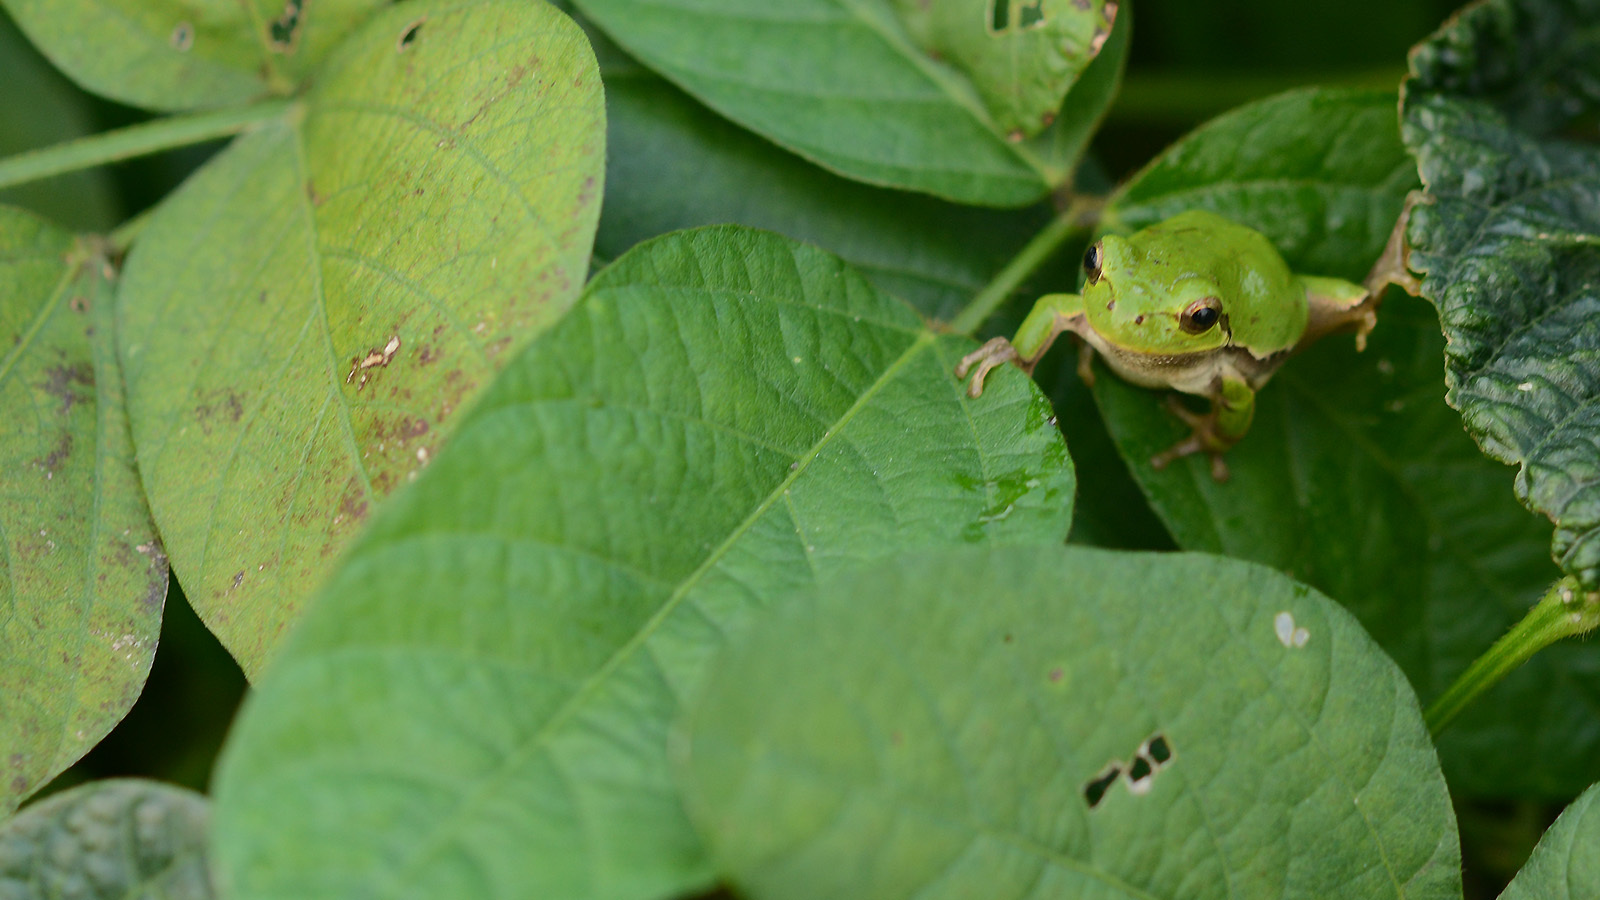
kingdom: Animalia
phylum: Chordata
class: Amphibia
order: Anura
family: Hylidae
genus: Dryophytes
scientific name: Dryophytes japonicus
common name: Japanese treefrog
